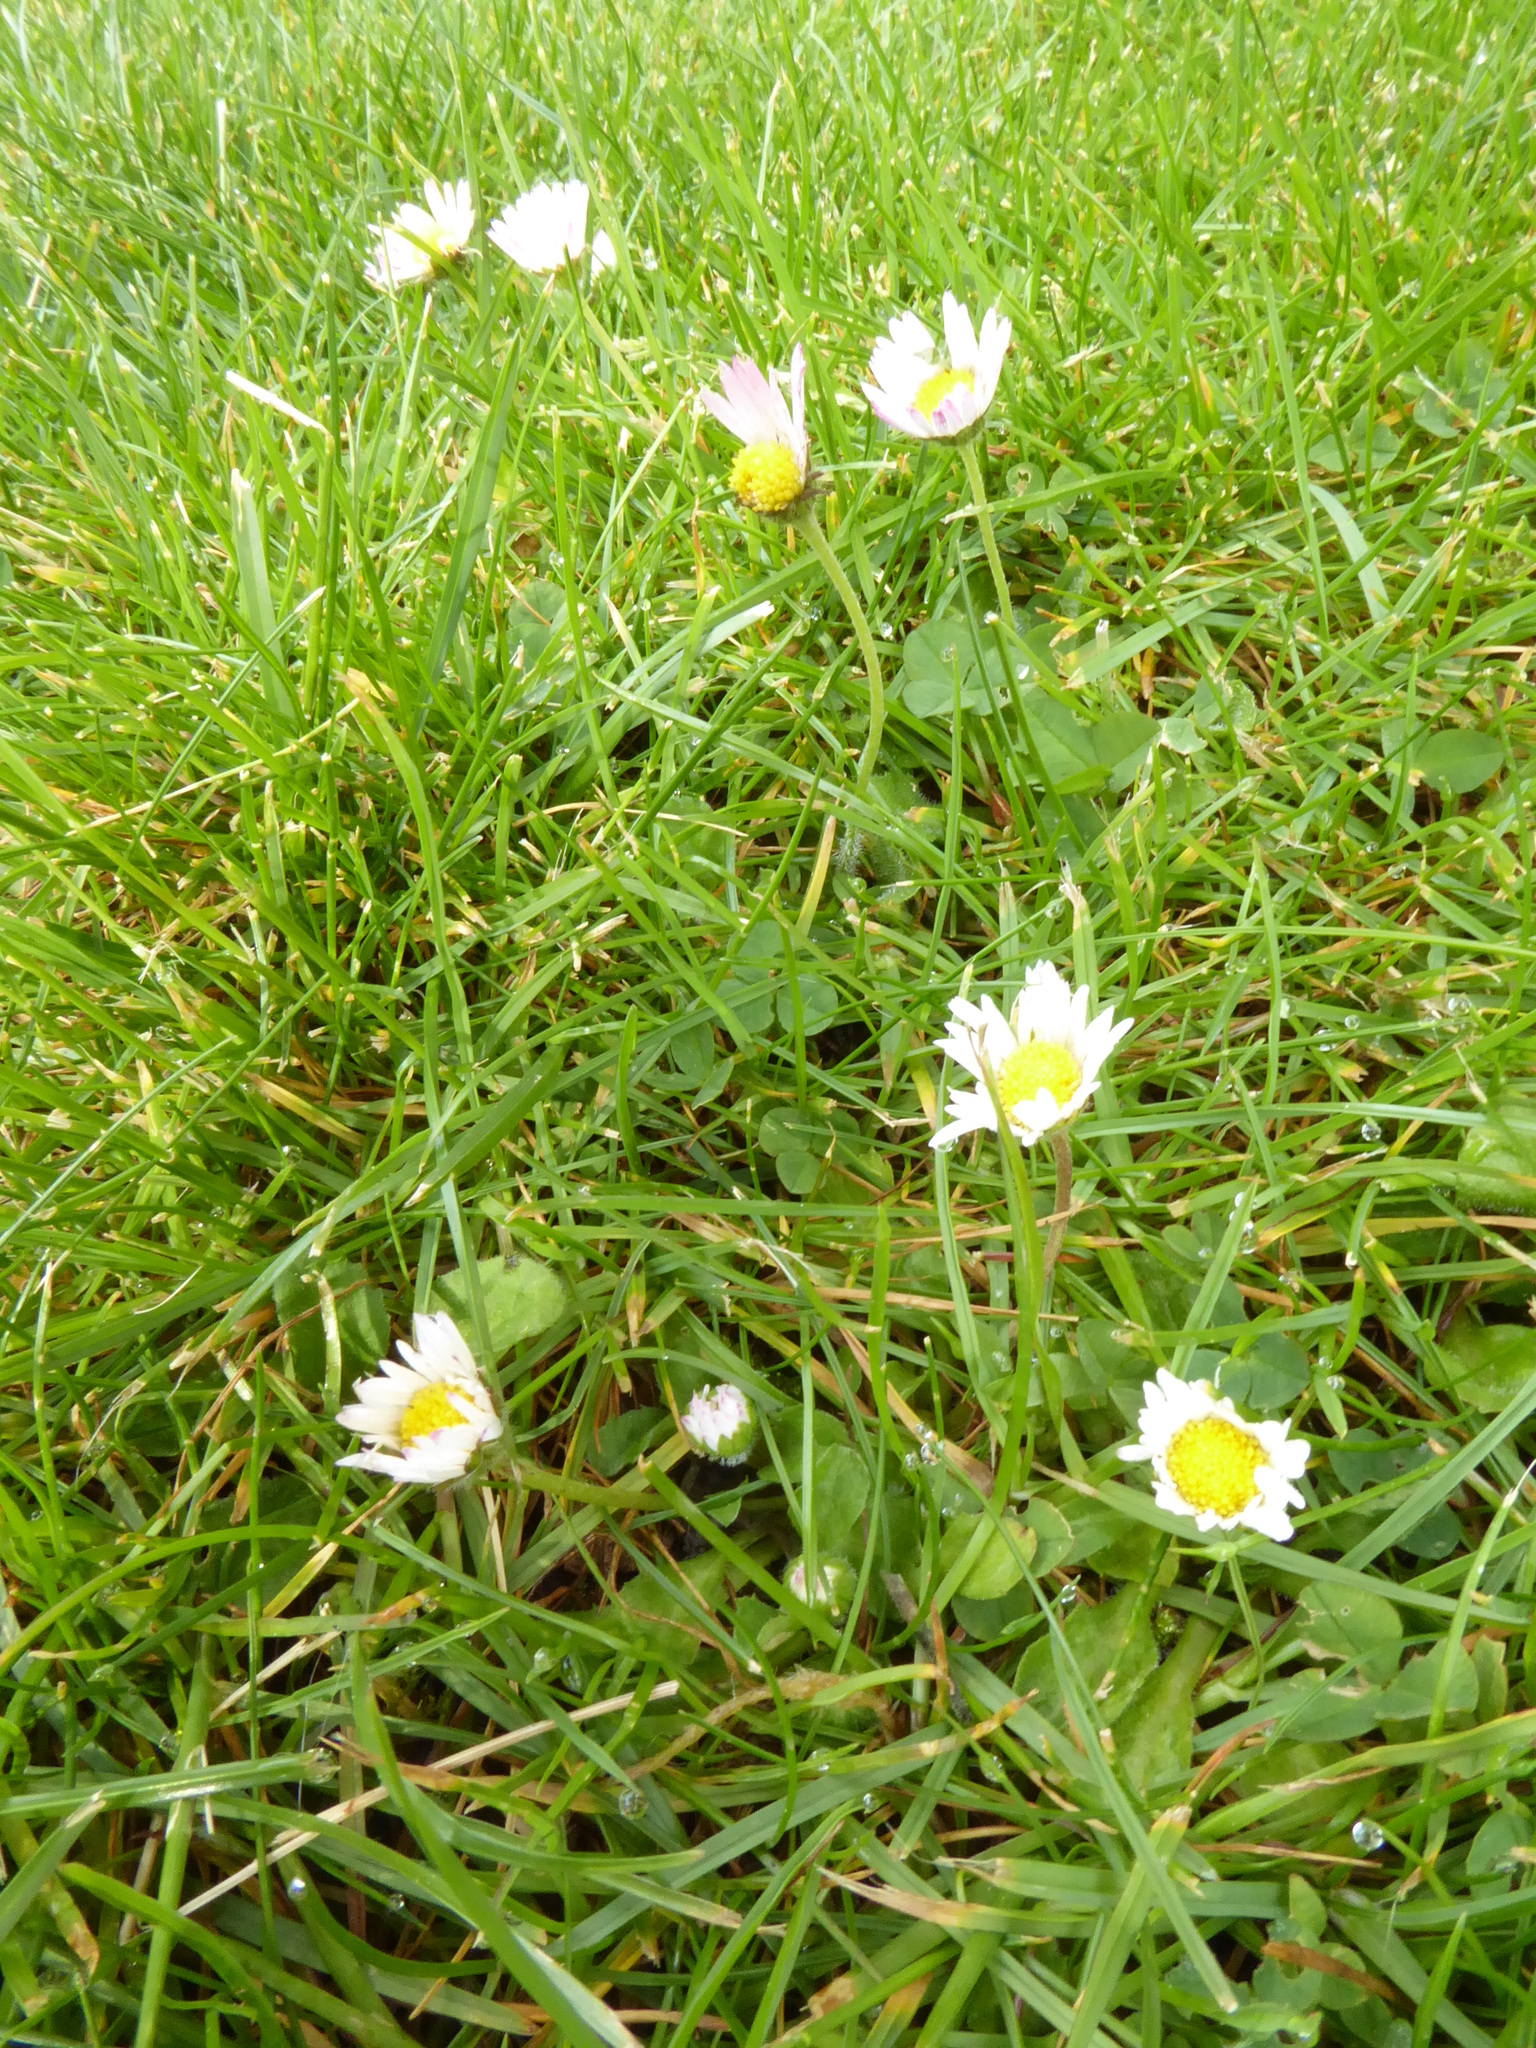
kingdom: Plantae
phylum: Tracheophyta
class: Magnoliopsida
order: Asterales
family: Asteraceae
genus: Bellis
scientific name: Bellis perennis
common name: Lawndaisy
